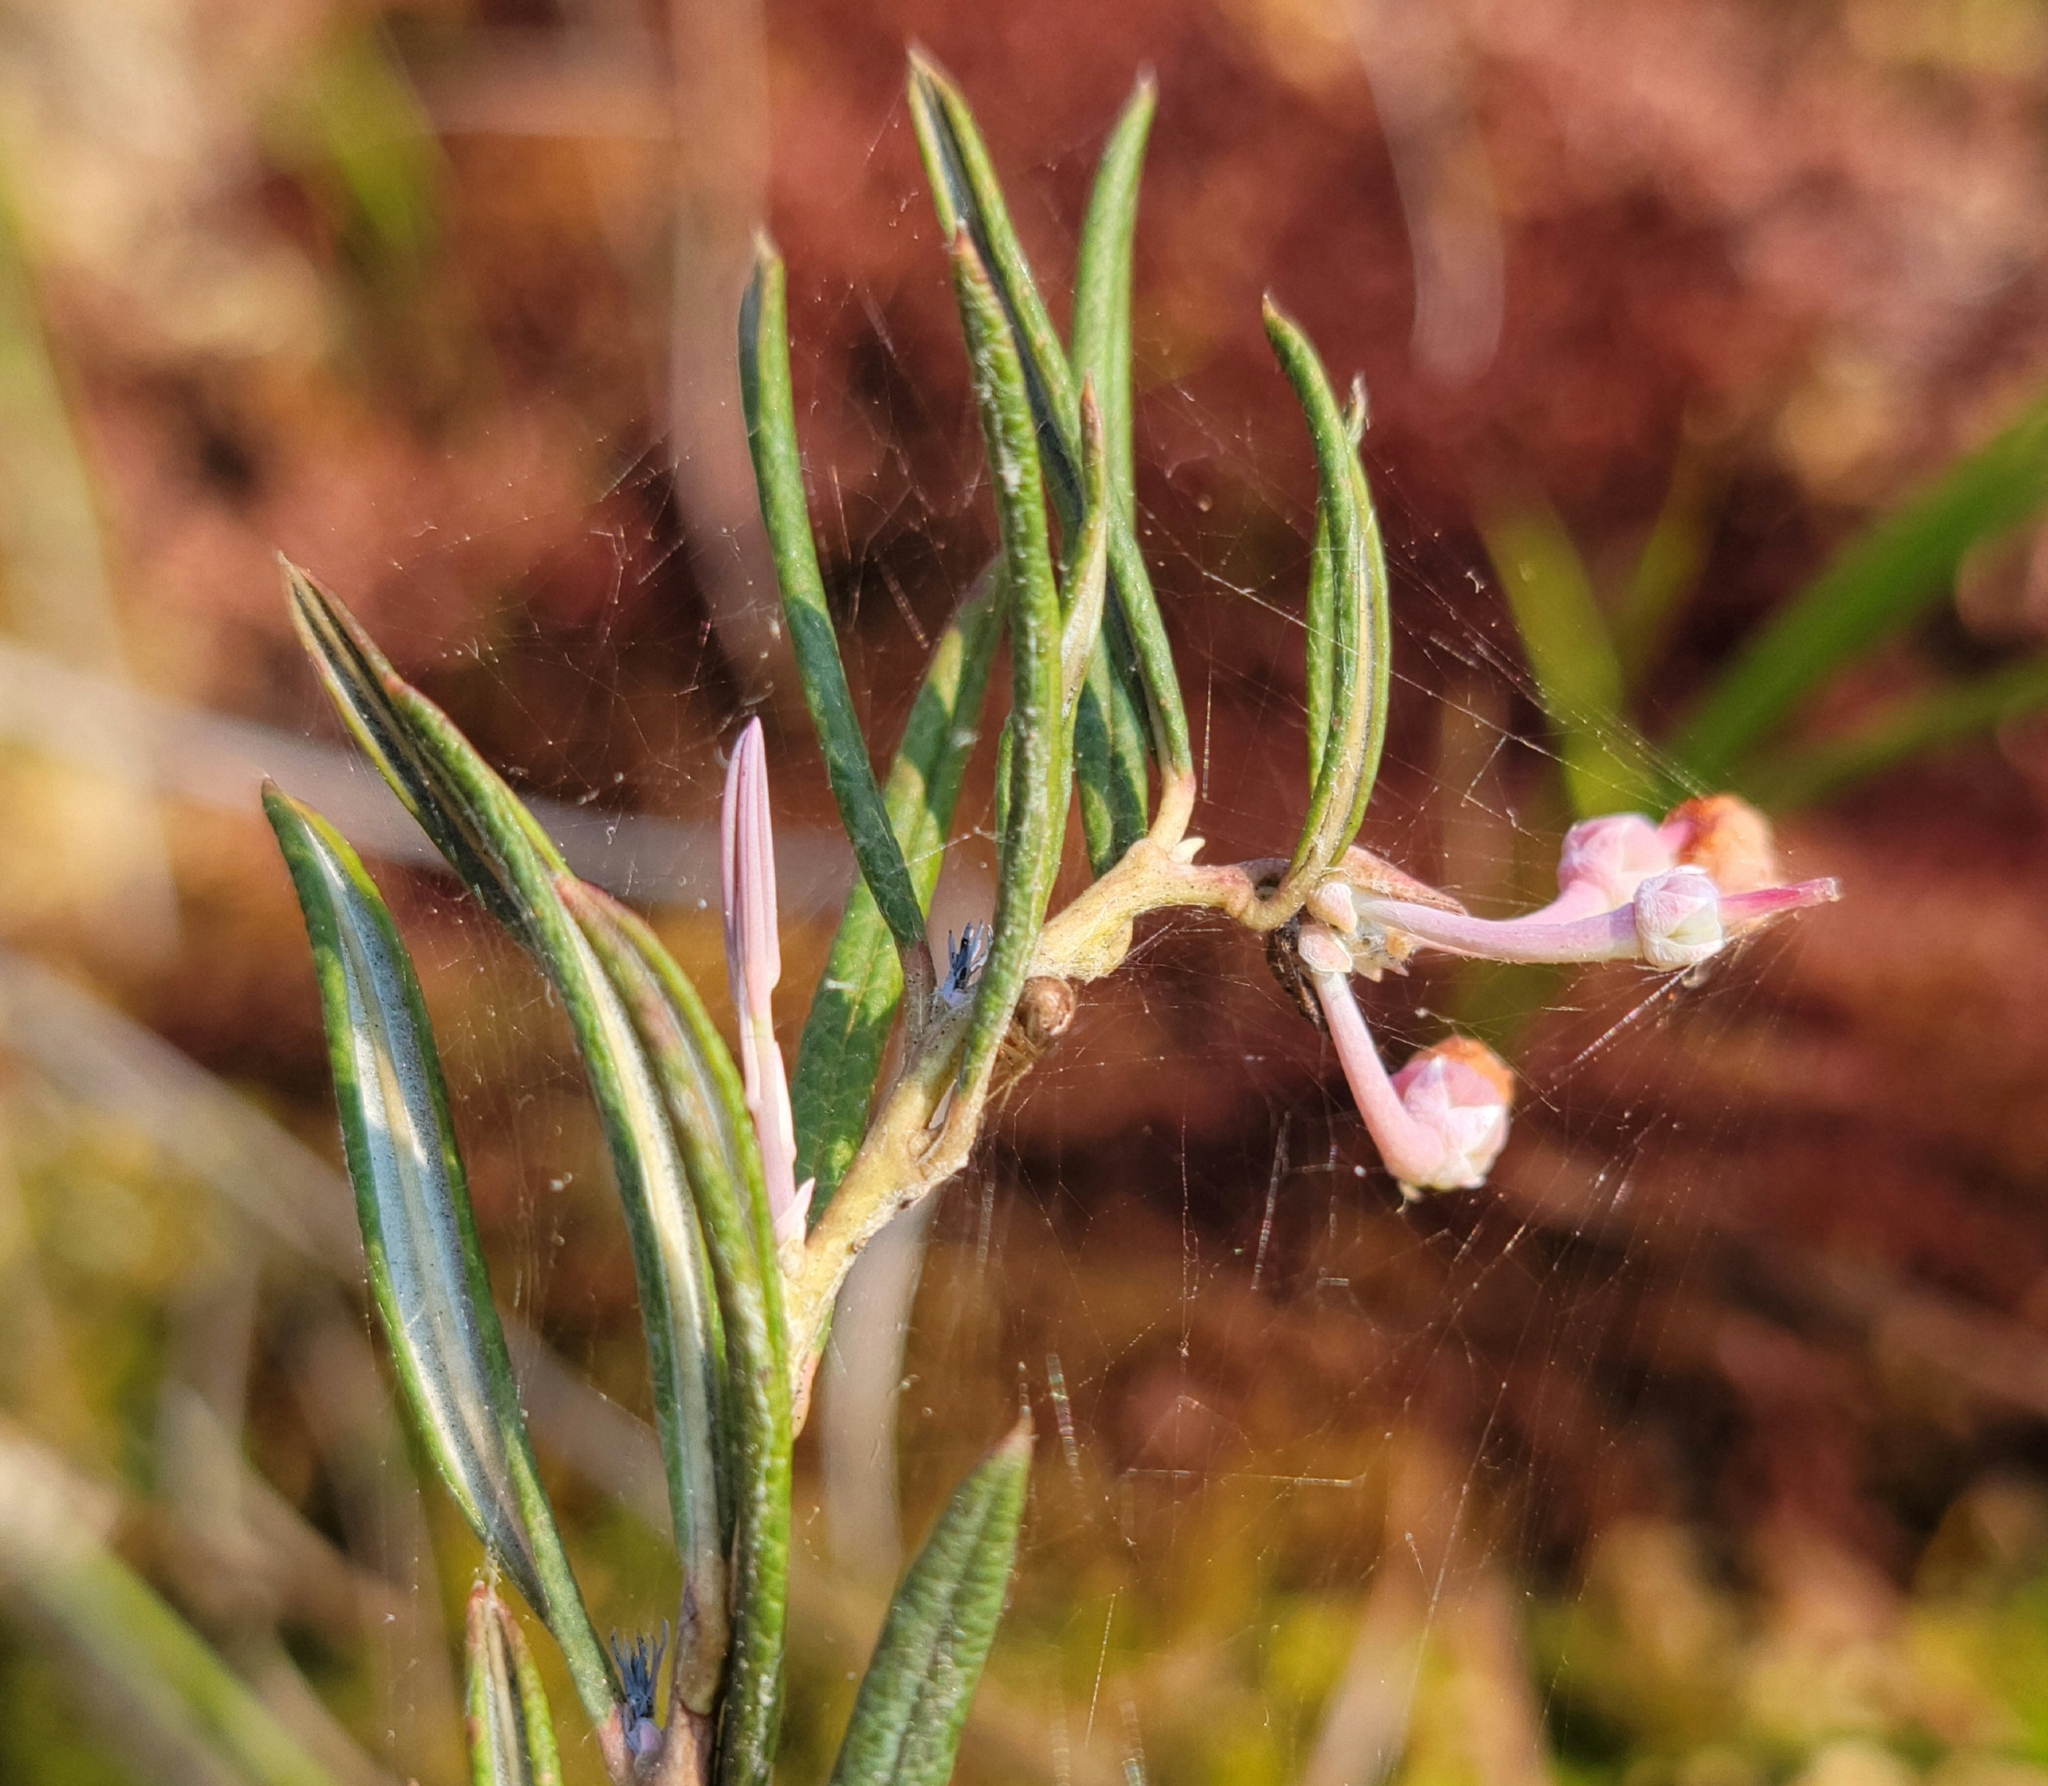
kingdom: Plantae
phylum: Tracheophyta
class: Magnoliopsida
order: Ericales
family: Ericaceae
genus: Andromeda
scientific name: Andromeda polifolia
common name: Bog-rosemary
